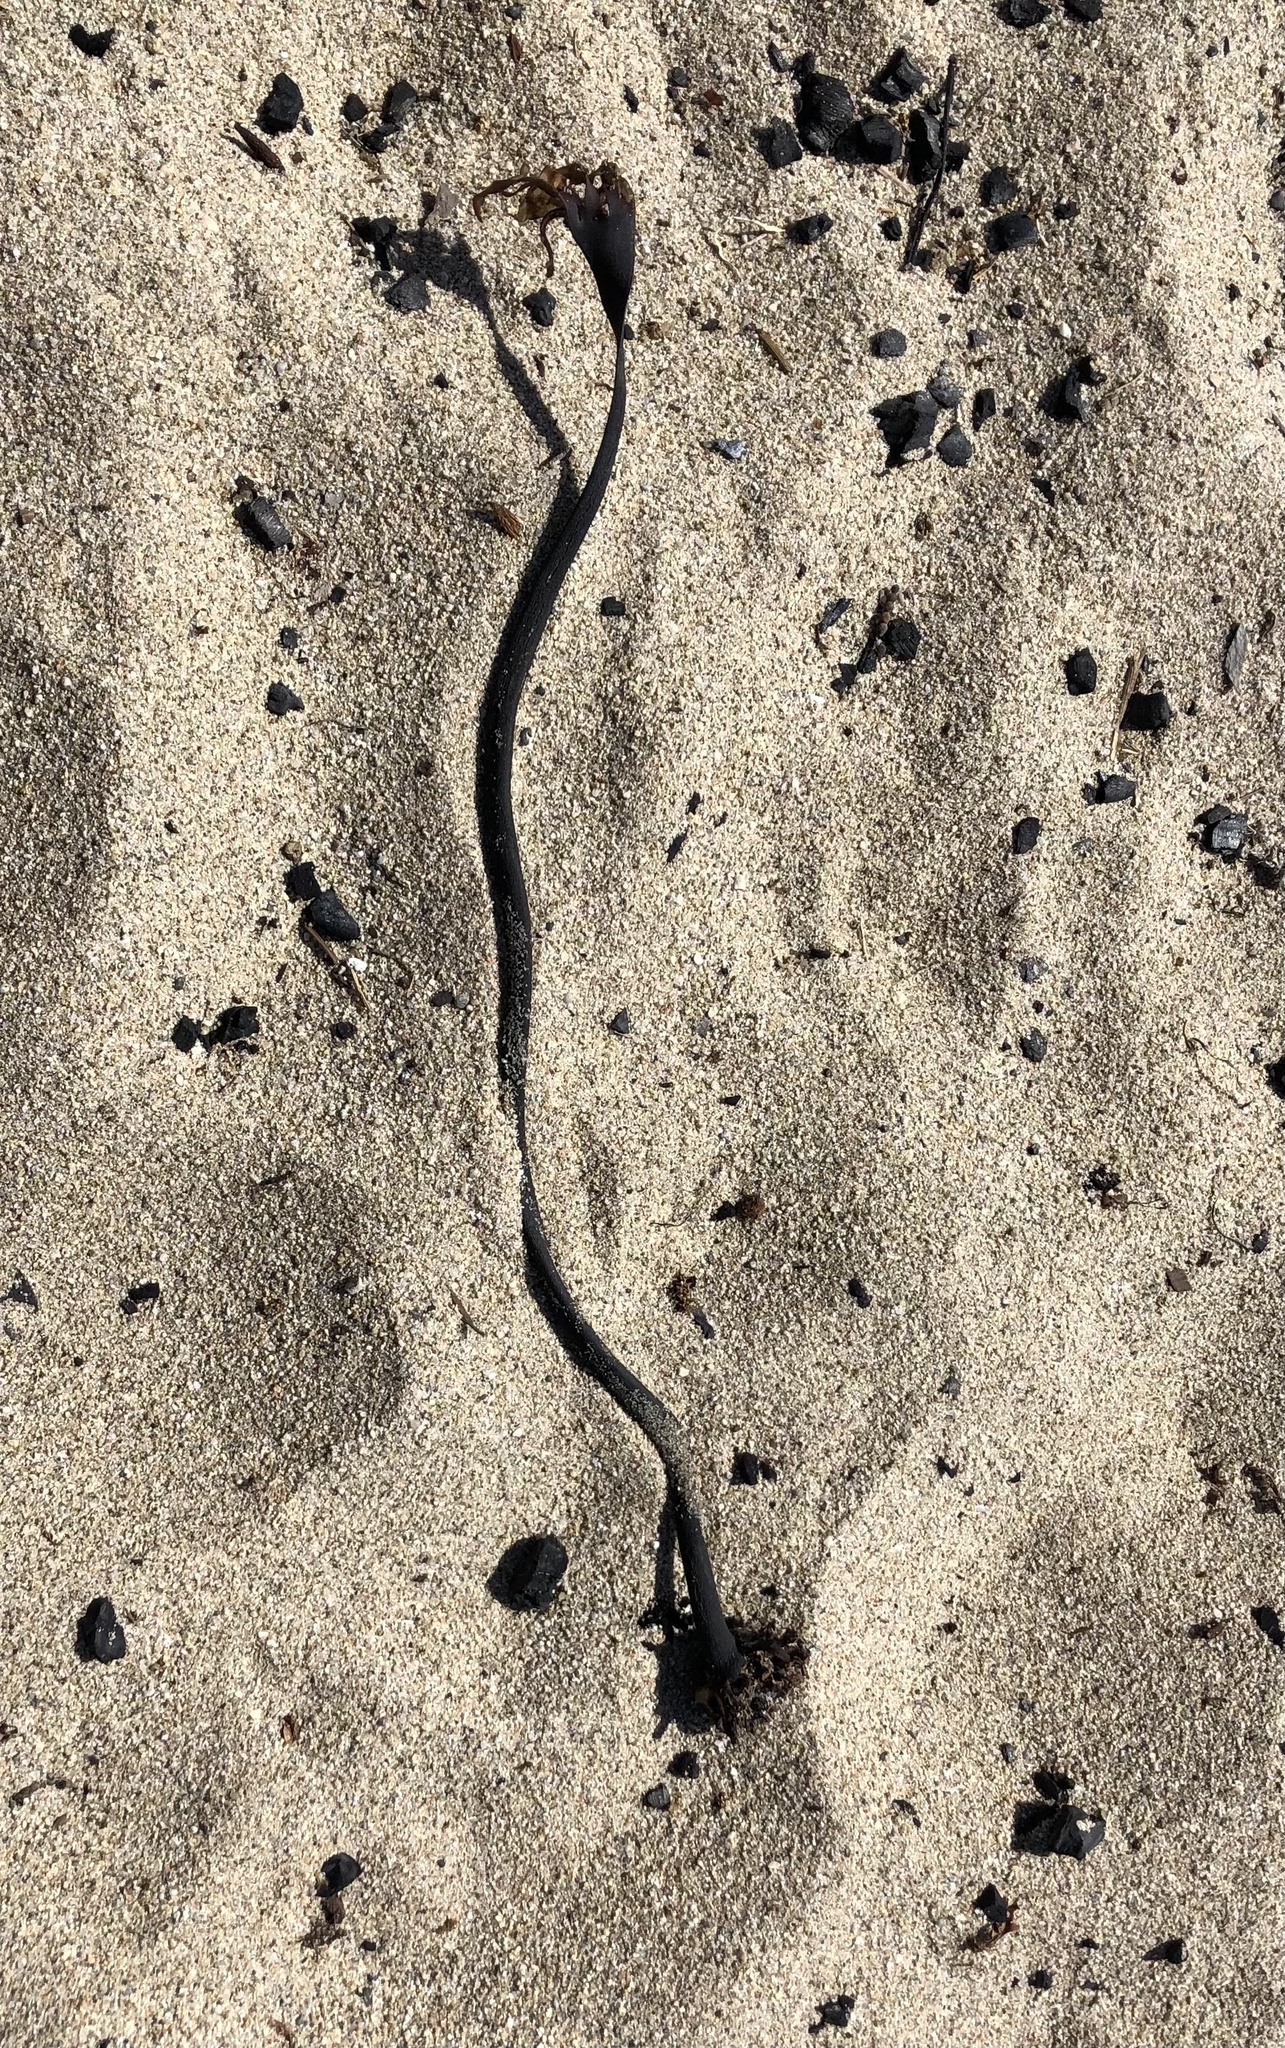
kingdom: Chromista
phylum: Ochrophyta
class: Phaeophyceae
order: Laminariales
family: Laminariaceae
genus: Laminaria
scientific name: Laminaria setchellii
